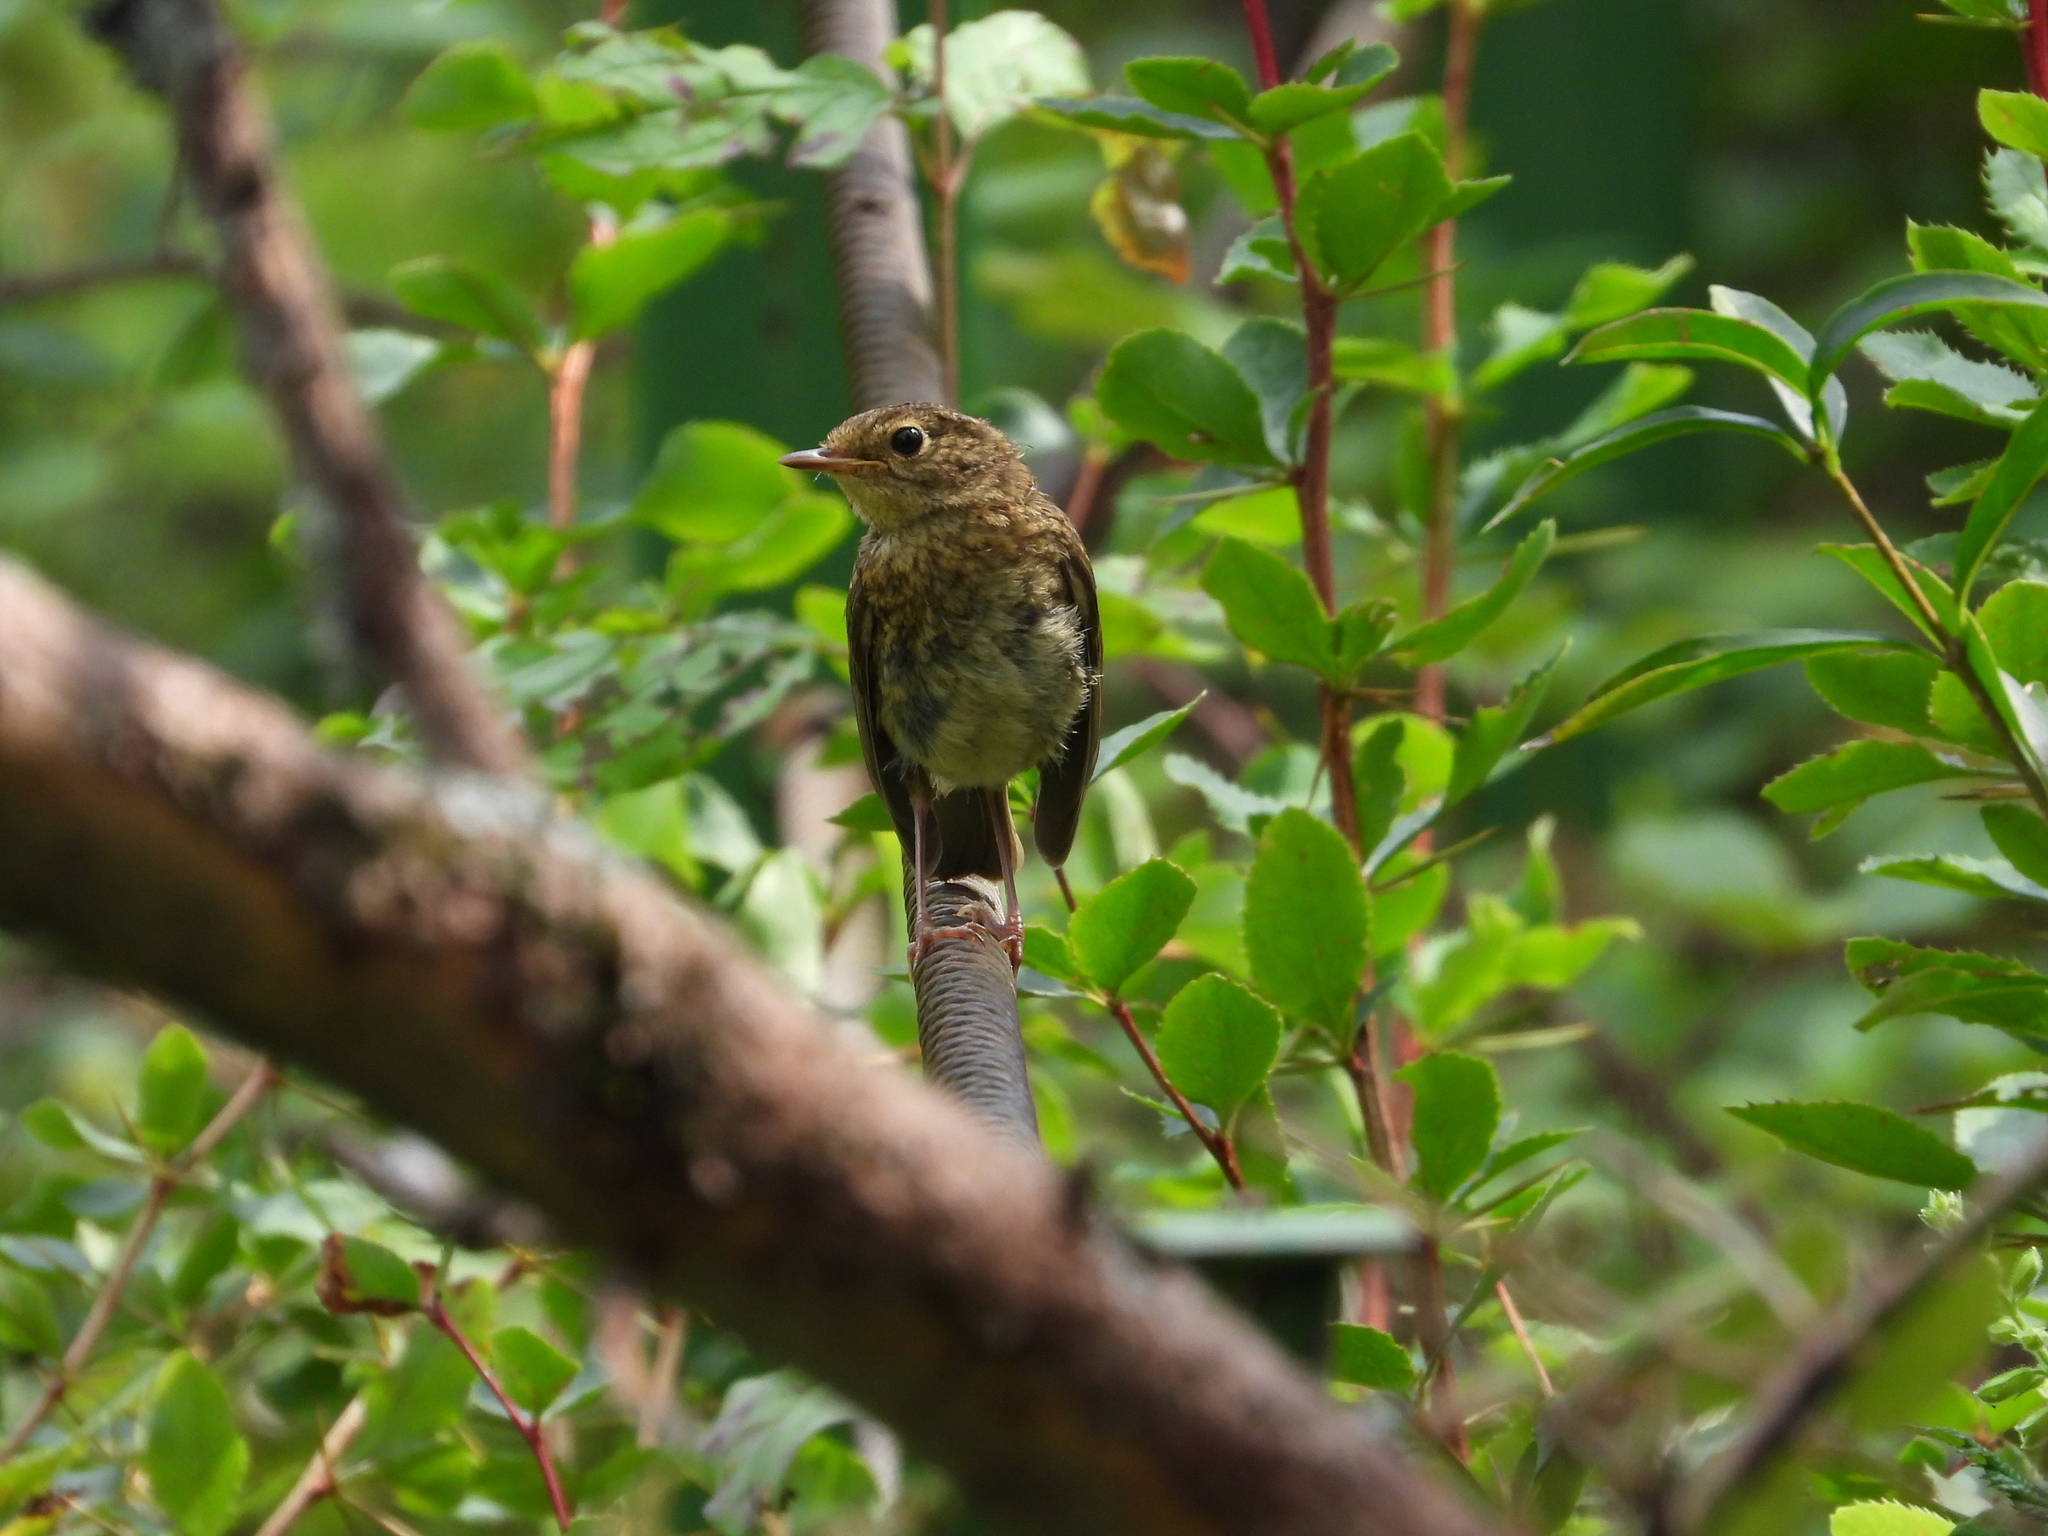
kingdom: Animalia
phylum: Chordata
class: Aves
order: Passeriformes
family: Muscicapidae
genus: Erithacus
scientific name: Erithacus rubecula
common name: European robin
